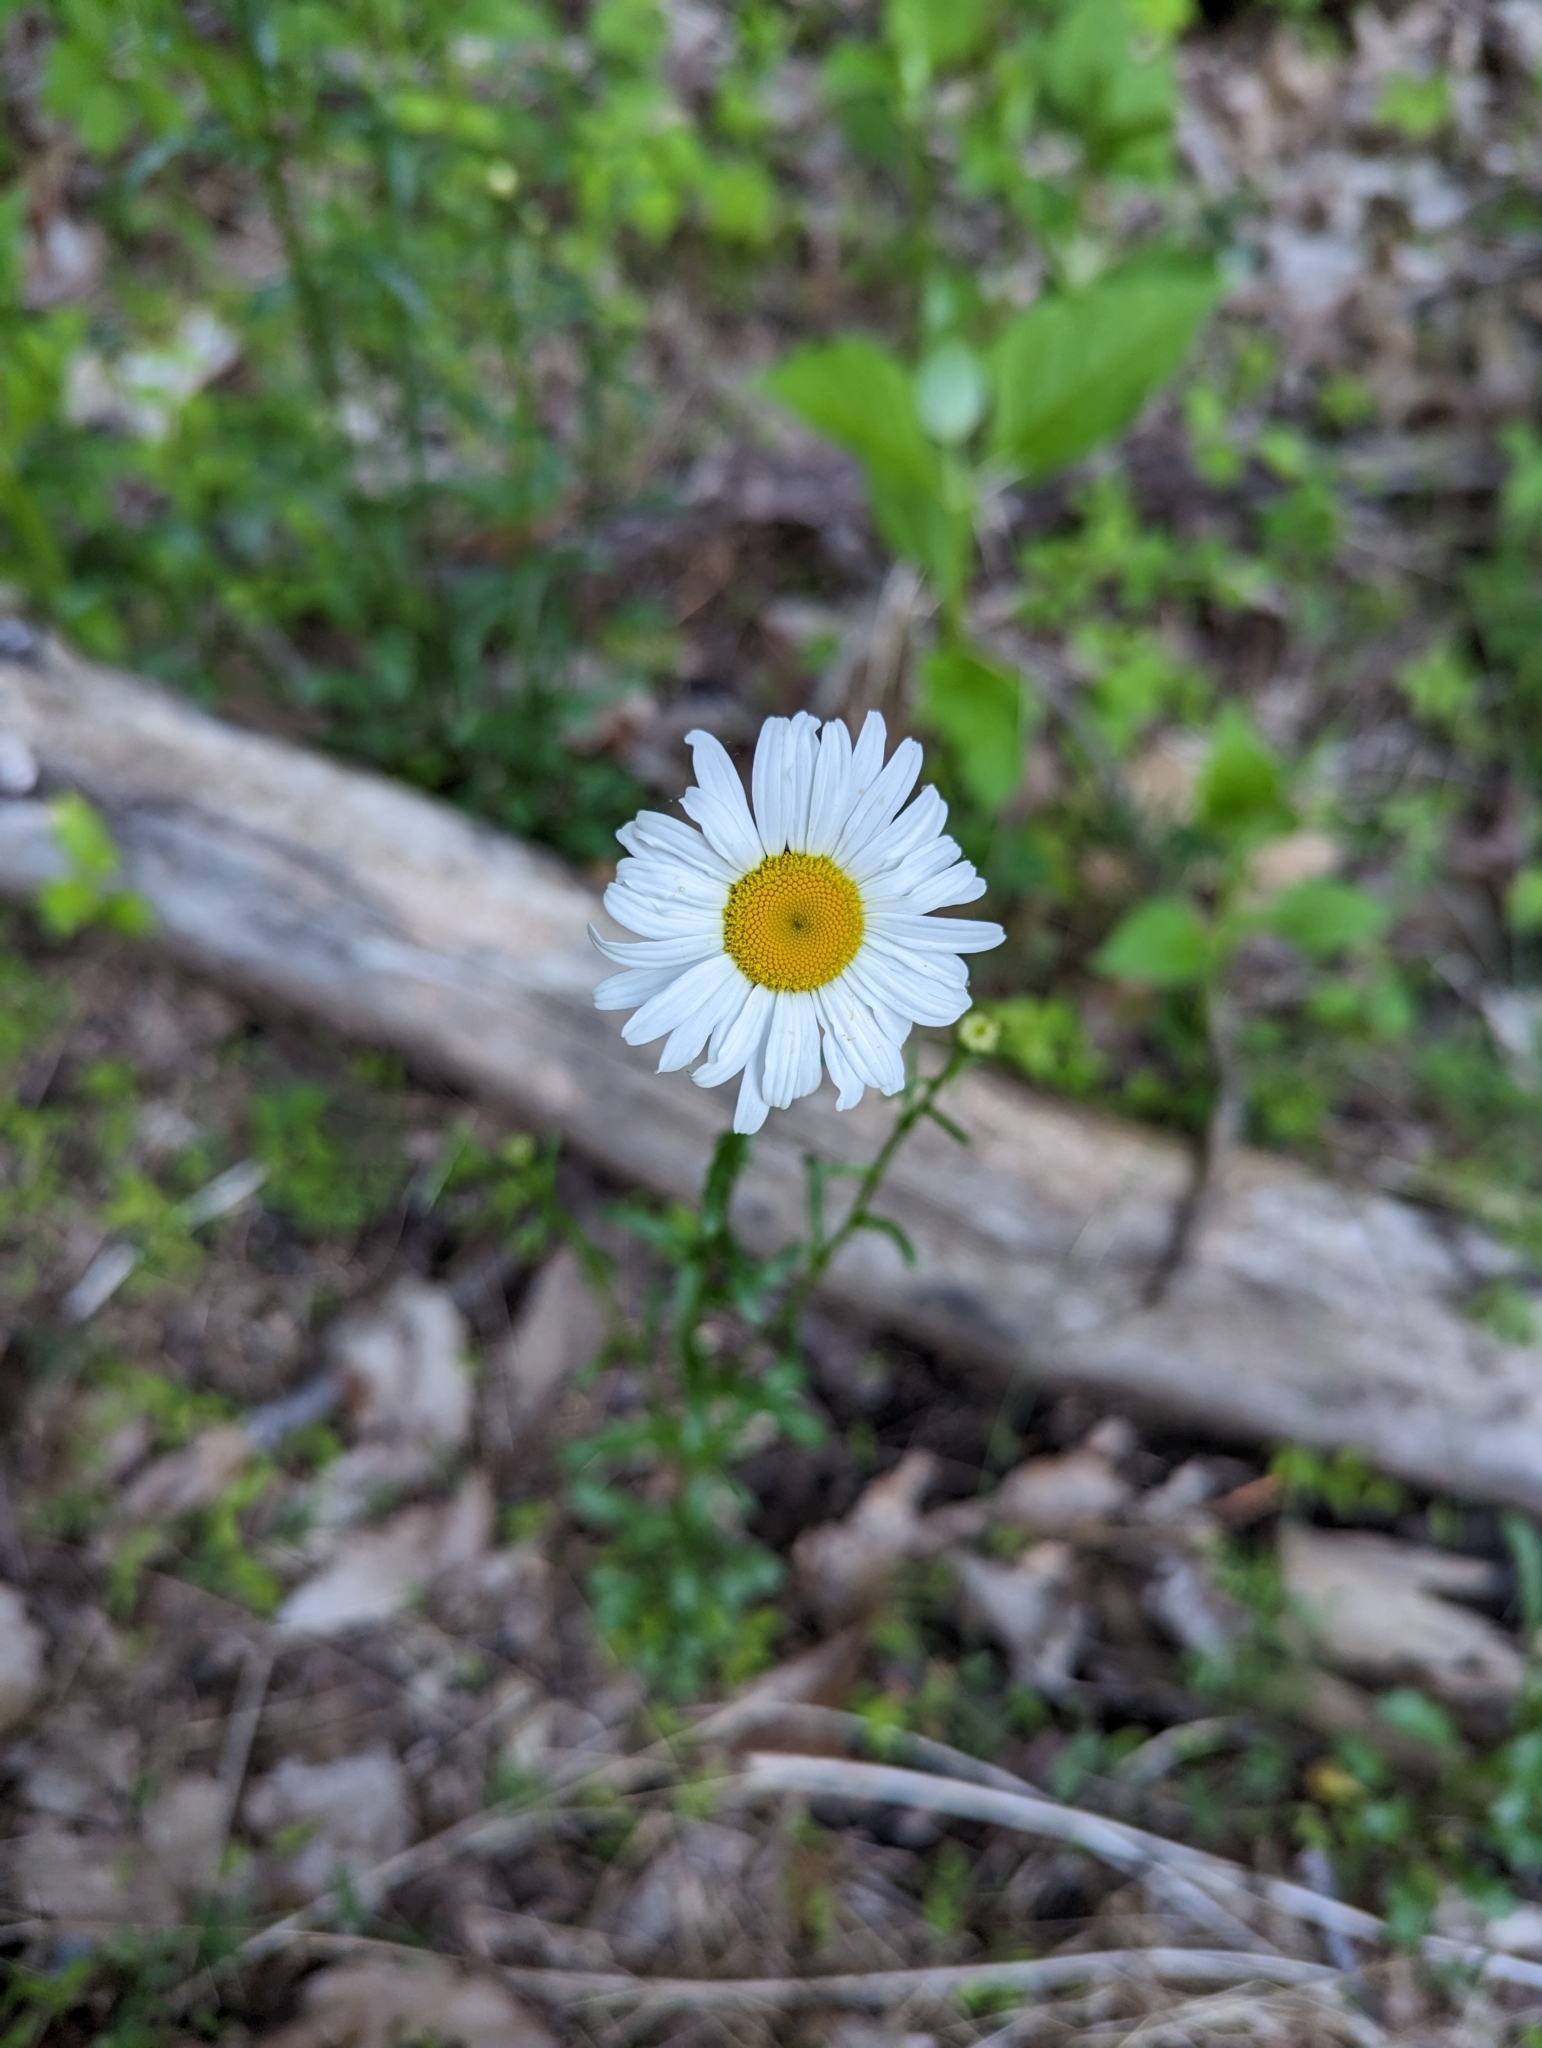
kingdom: Plantae
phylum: Tracheophyta
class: Magnoliopsida
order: Asterales
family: Asteraceae
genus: Leucanthemum
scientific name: Leucanthemum vulgare
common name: Oxeye daisy
